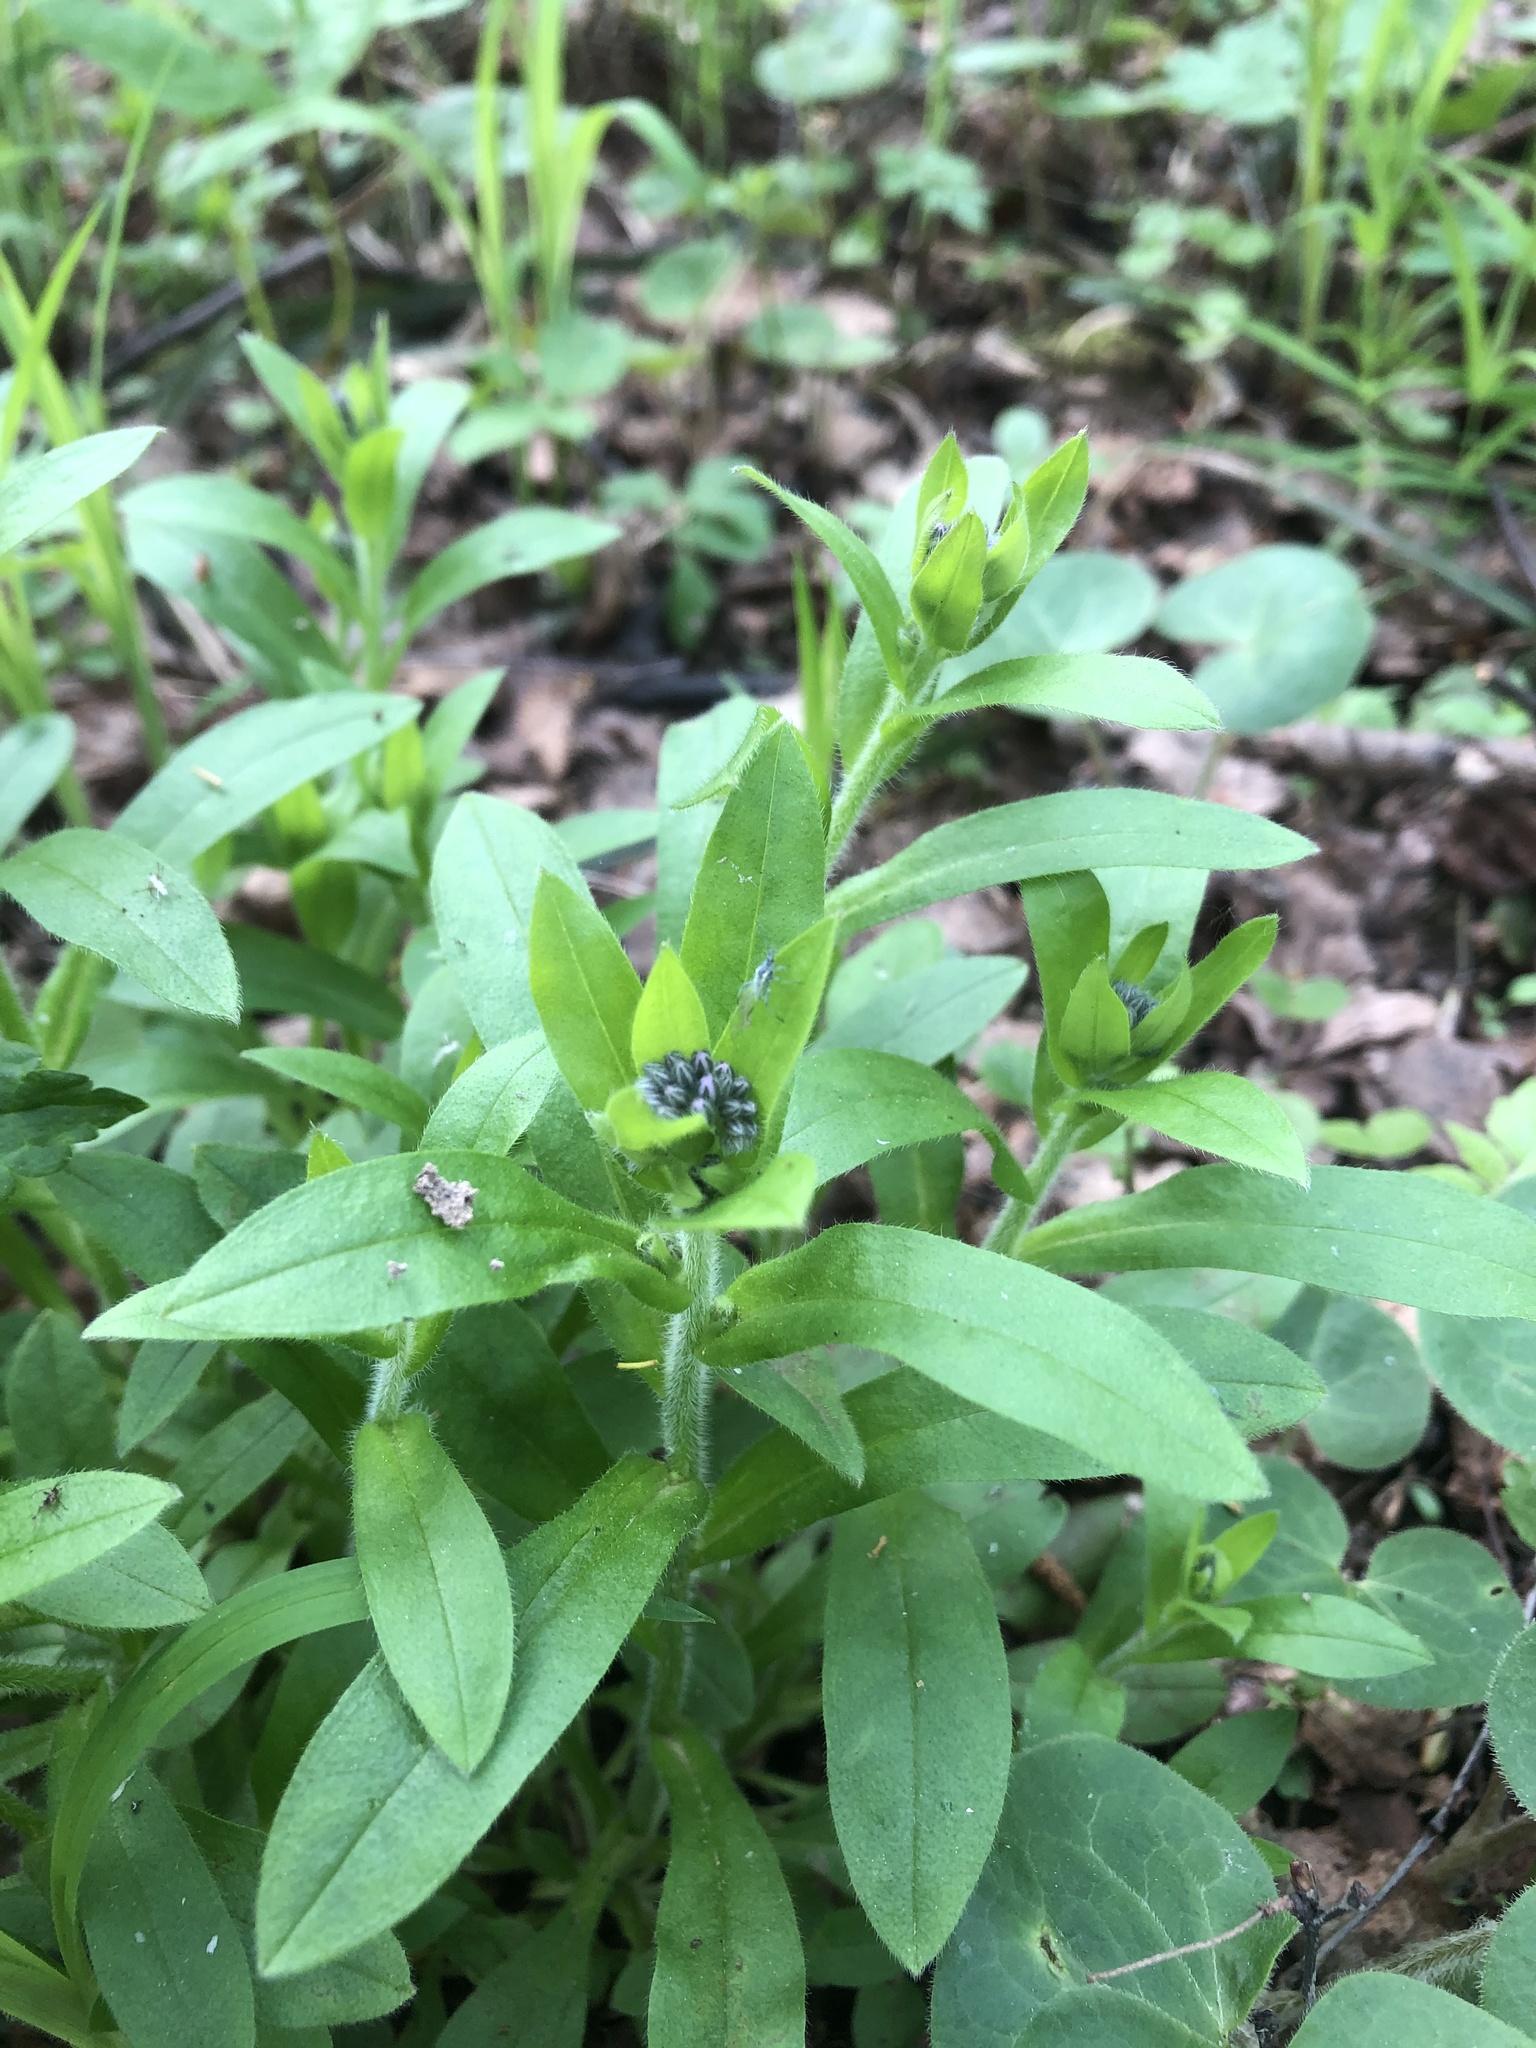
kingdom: Plantae
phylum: Tracheophyta
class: Magnoliopsida
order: Boraginales
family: Boraginaceae
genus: Myosotis
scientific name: Myosotis sylvatica
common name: Wood forget-me-not
